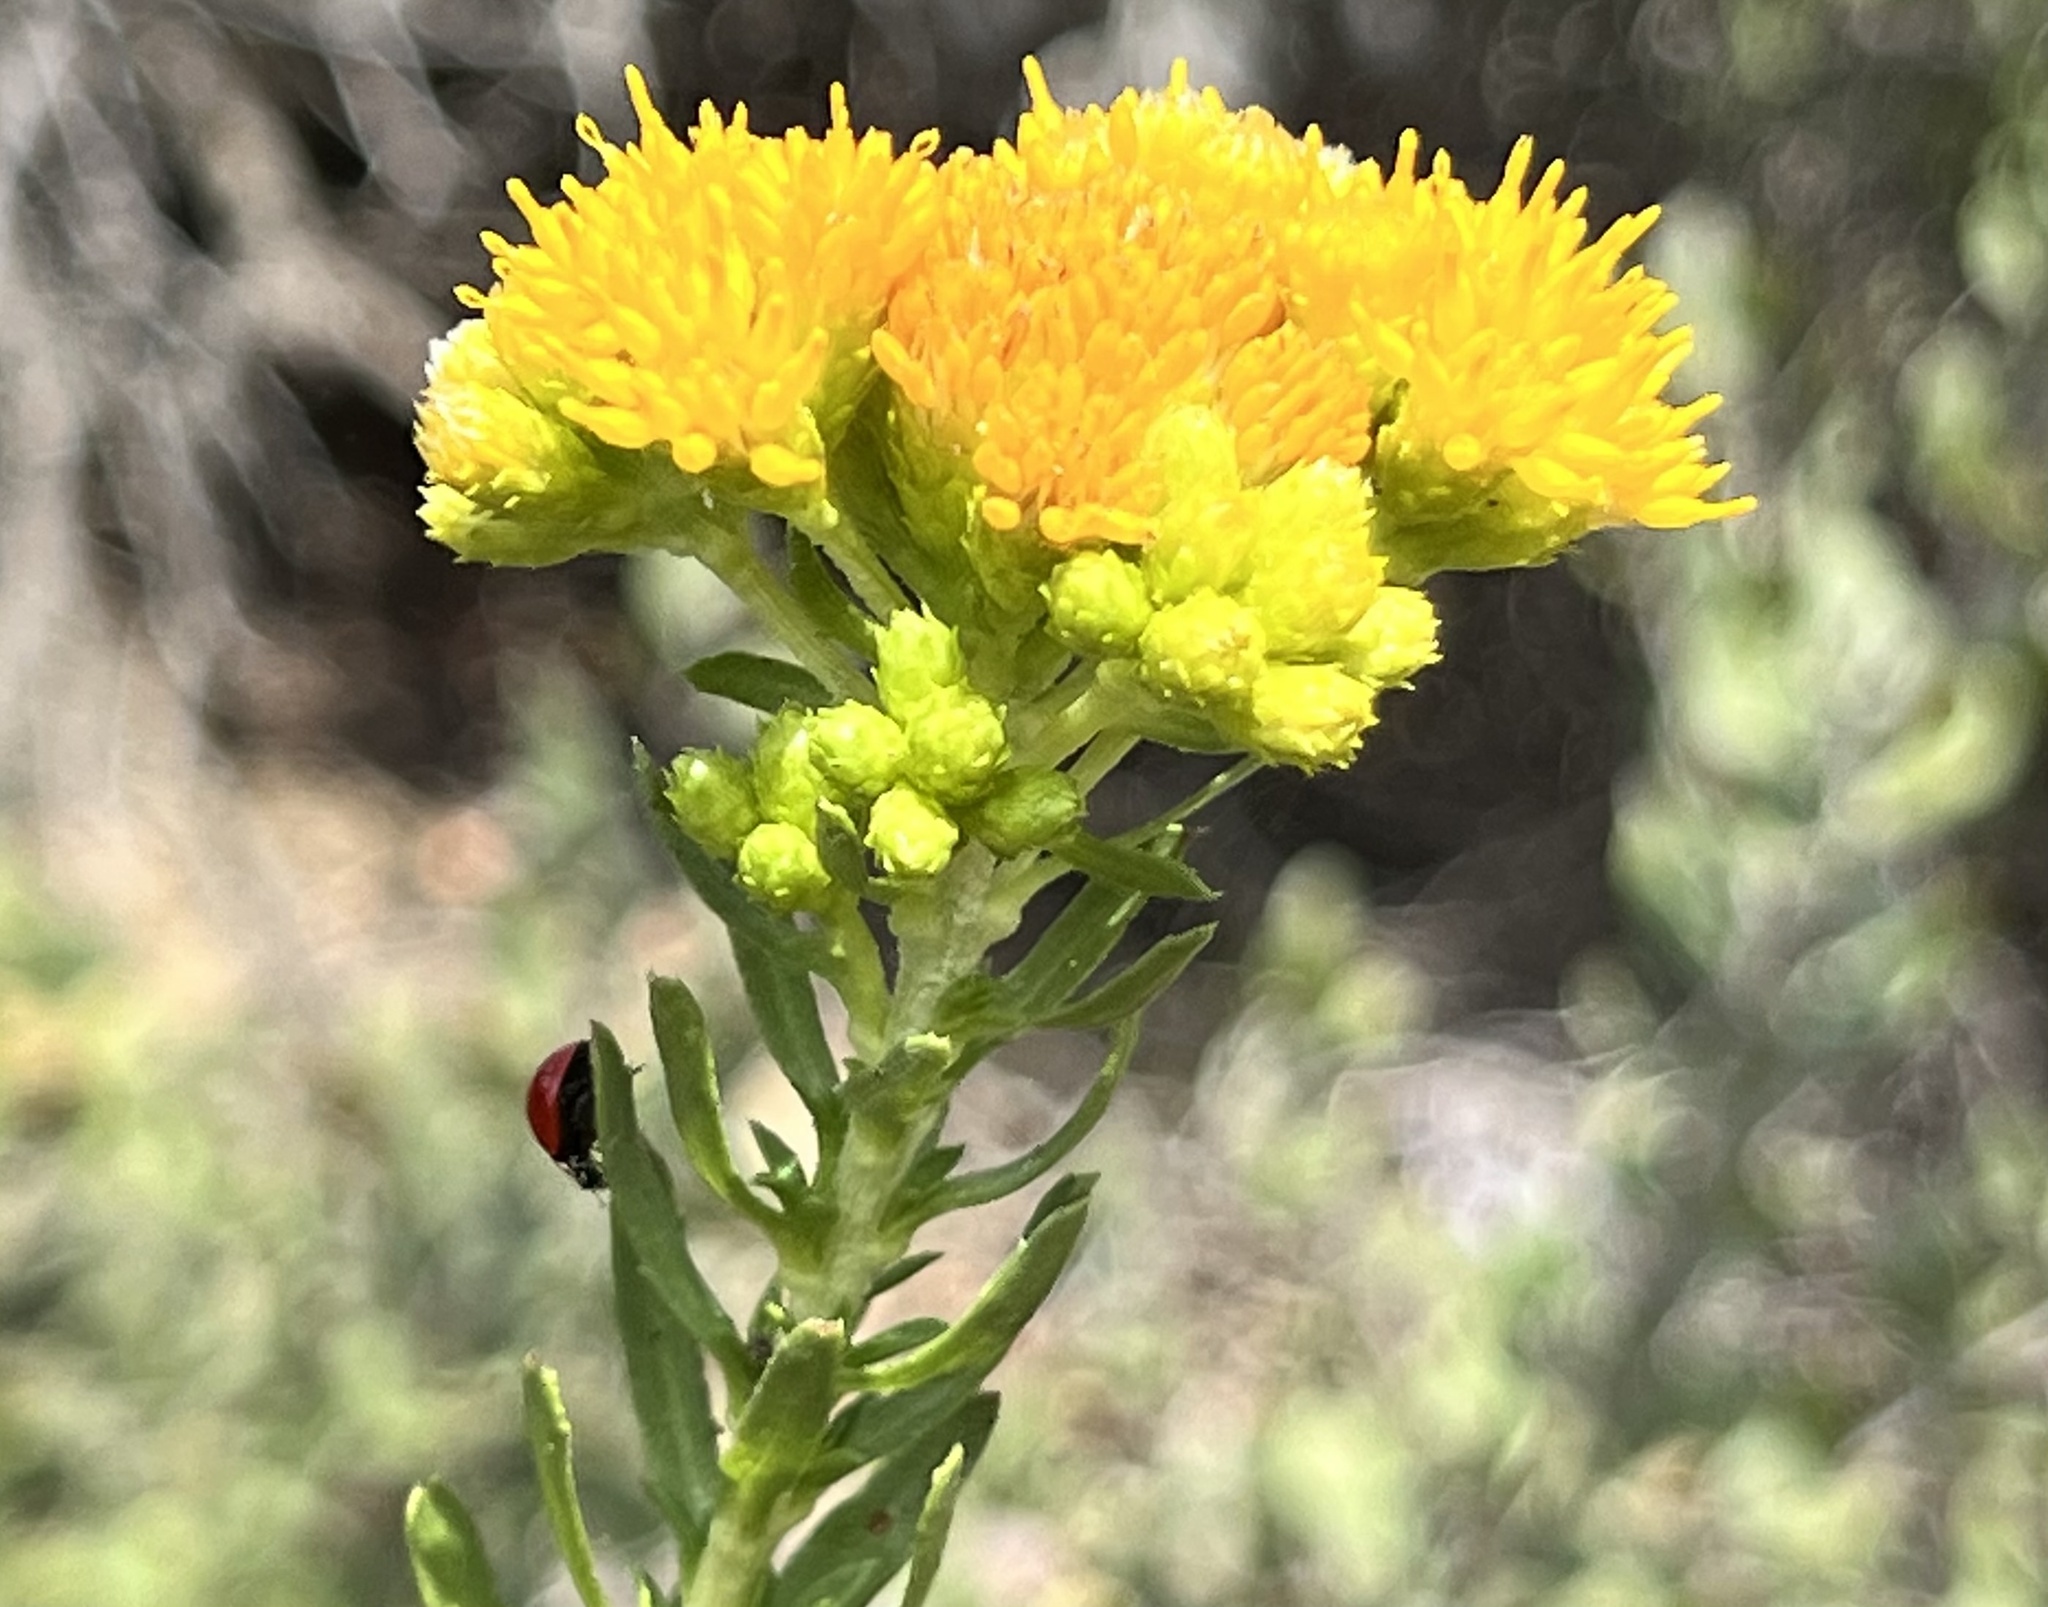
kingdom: Plantae
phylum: Tracheophyta
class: Magnoliopsida
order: Asterales
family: Asteraceae
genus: Isocoma
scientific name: Isocoma menziesii
